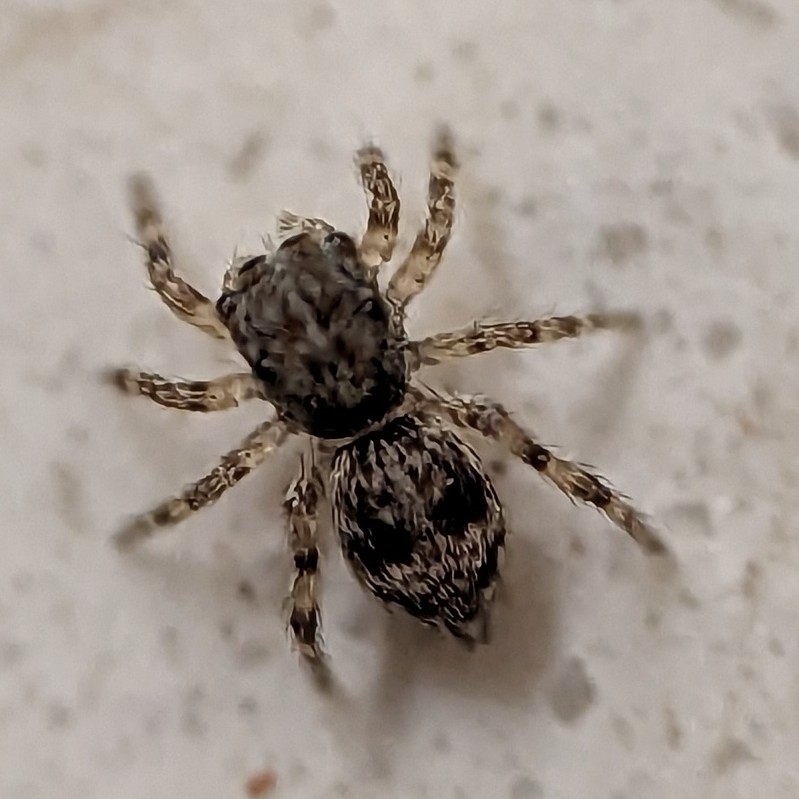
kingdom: Animalia
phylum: Arthropoda
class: Arachnida
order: Araneae
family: Salticidae
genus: Attulus
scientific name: Attulus fasciger
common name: Asiatic wall jumping spider
